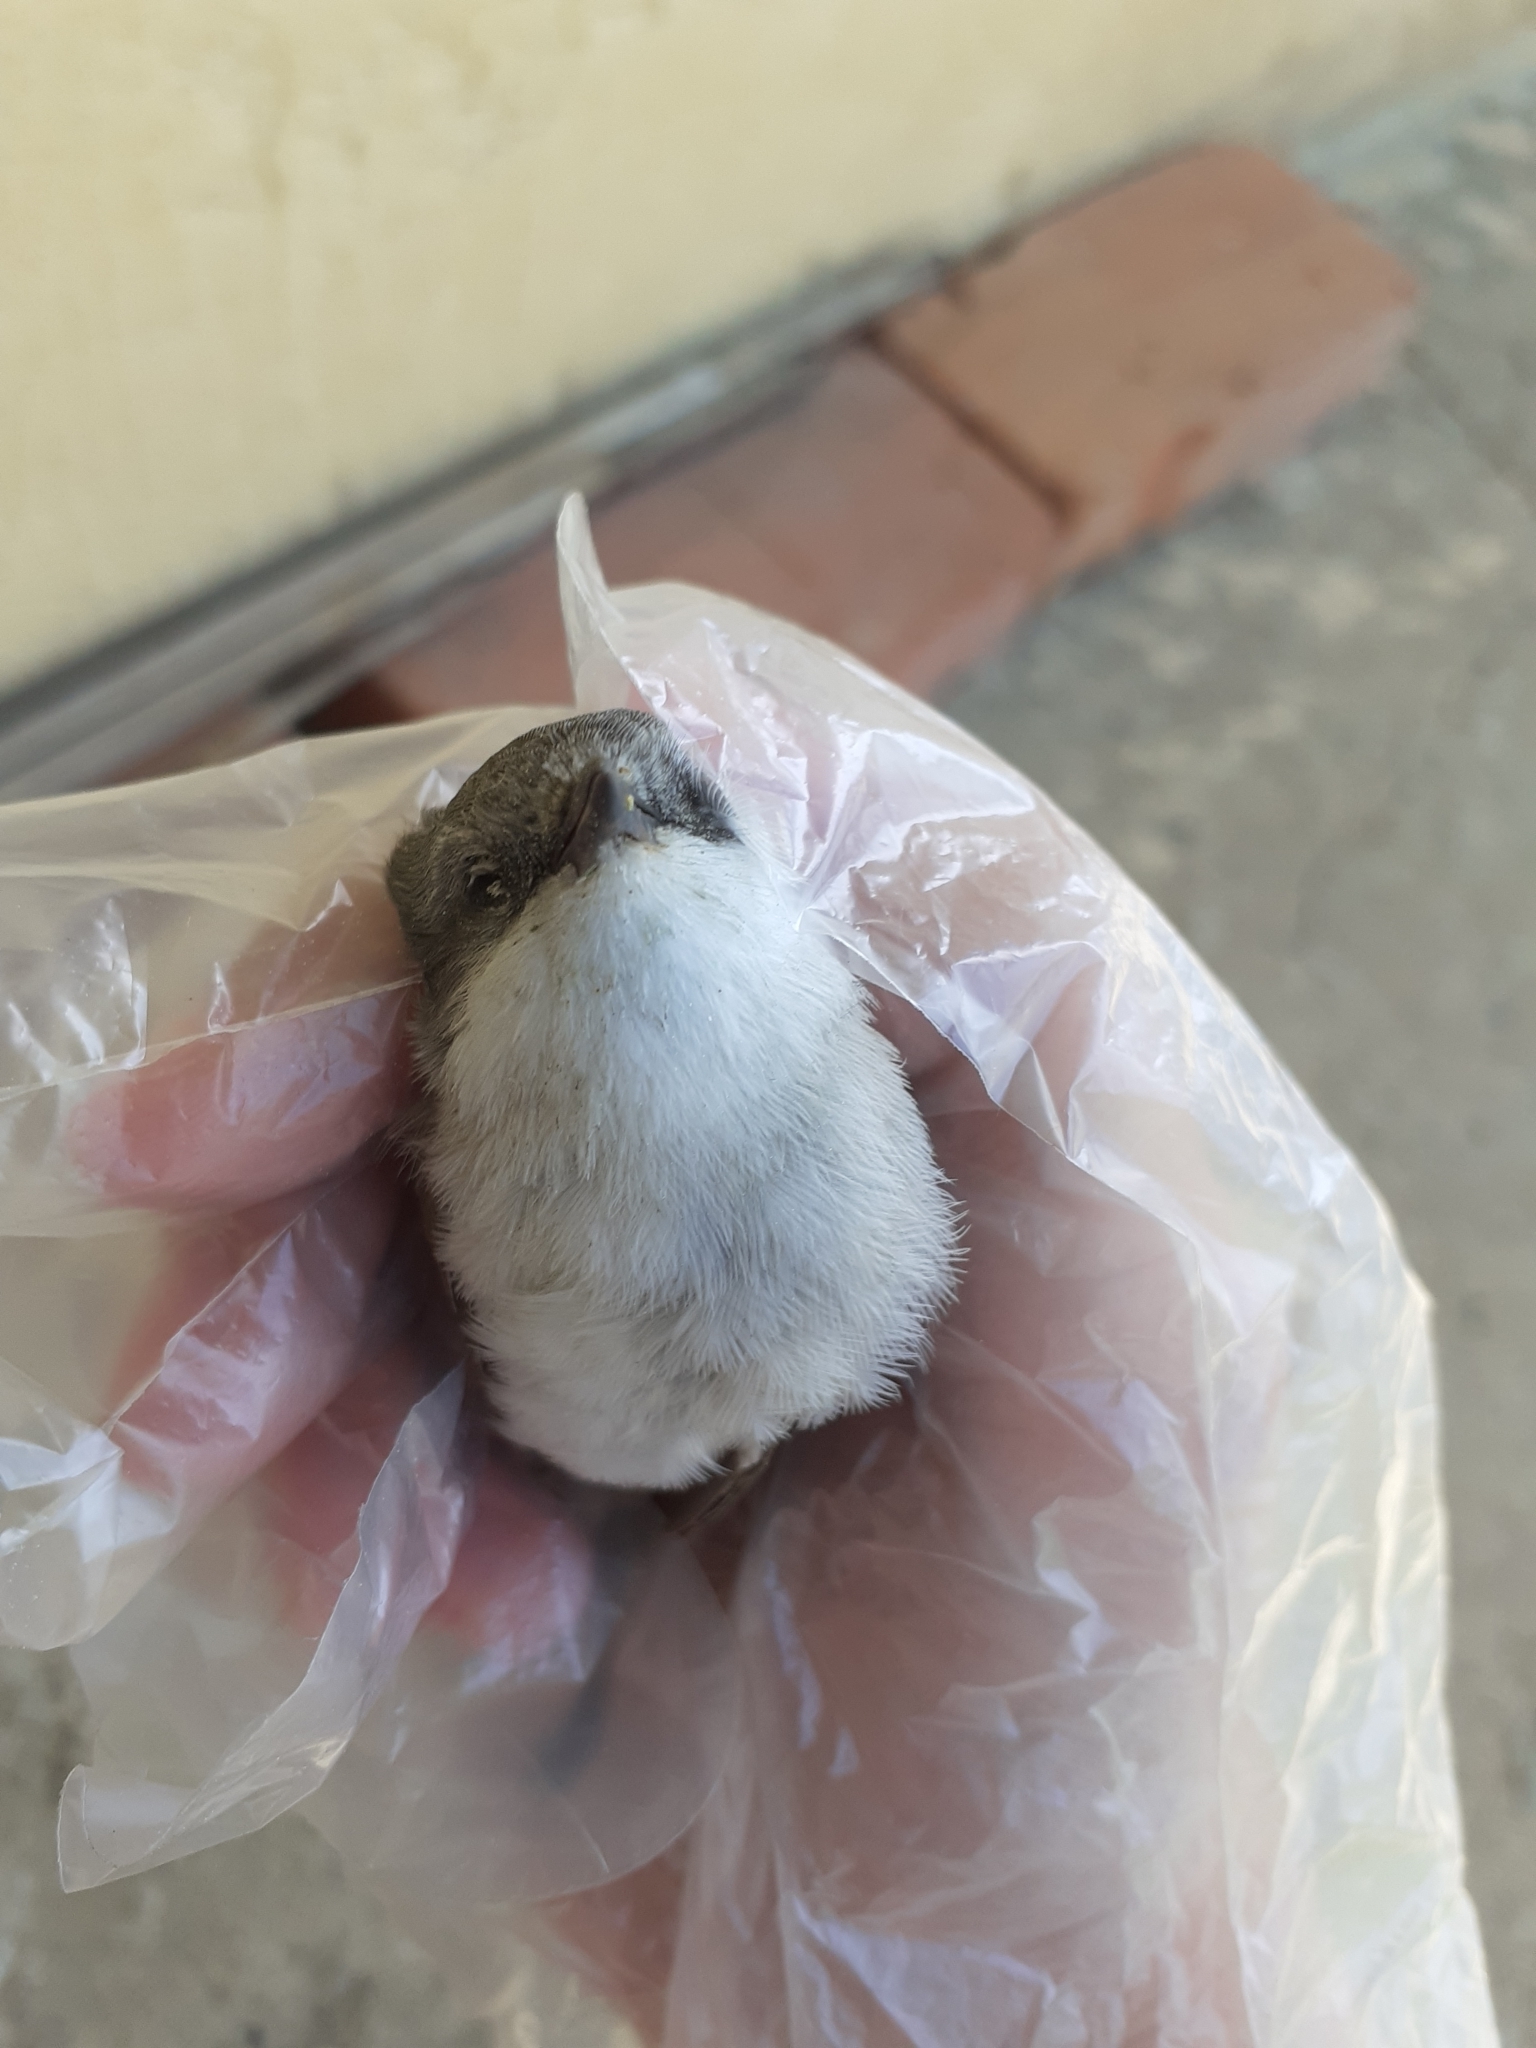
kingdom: Animalia
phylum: Chordata
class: Aves
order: Passeriformes
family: Sylviidae
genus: Sylvia
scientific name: Sylvia curruca
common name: Lesser whitethroat
